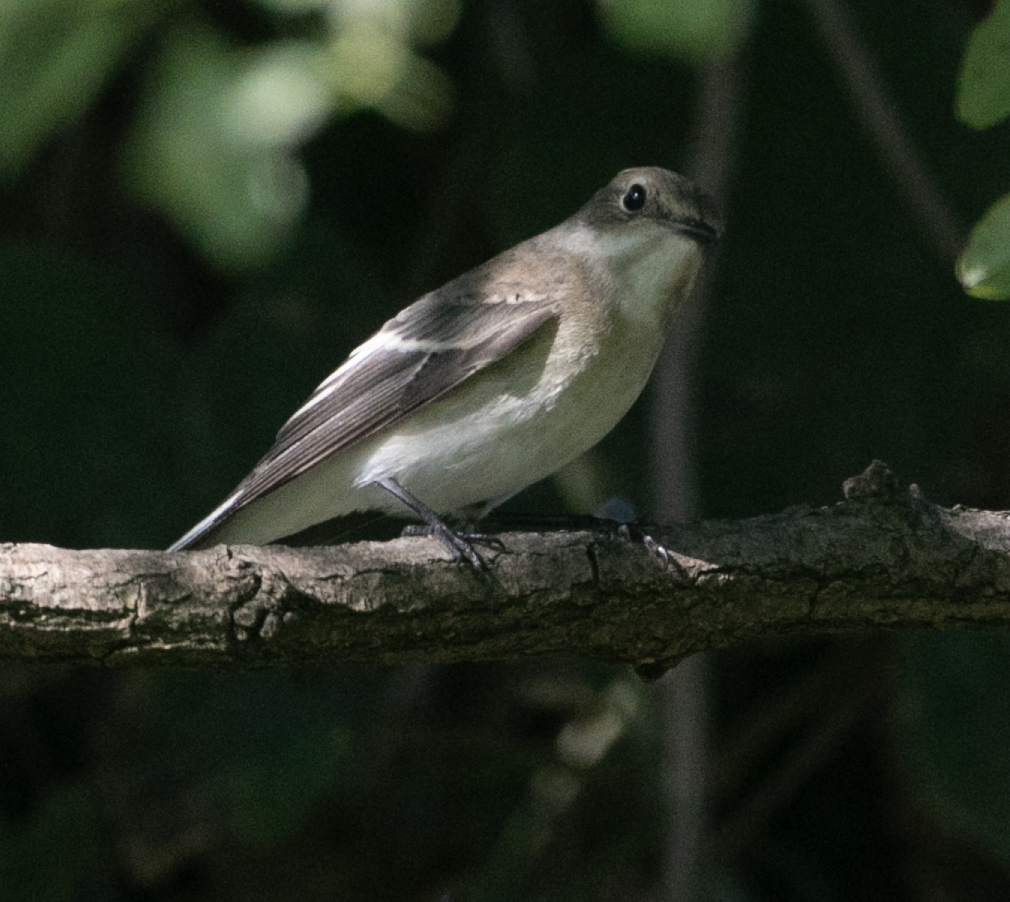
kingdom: Animalia
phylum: Chordata
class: Aves
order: Passeriformes
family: Muscicapidae
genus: Ficedula
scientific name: Ficedula hypoleuca
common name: European pied flycatcher
